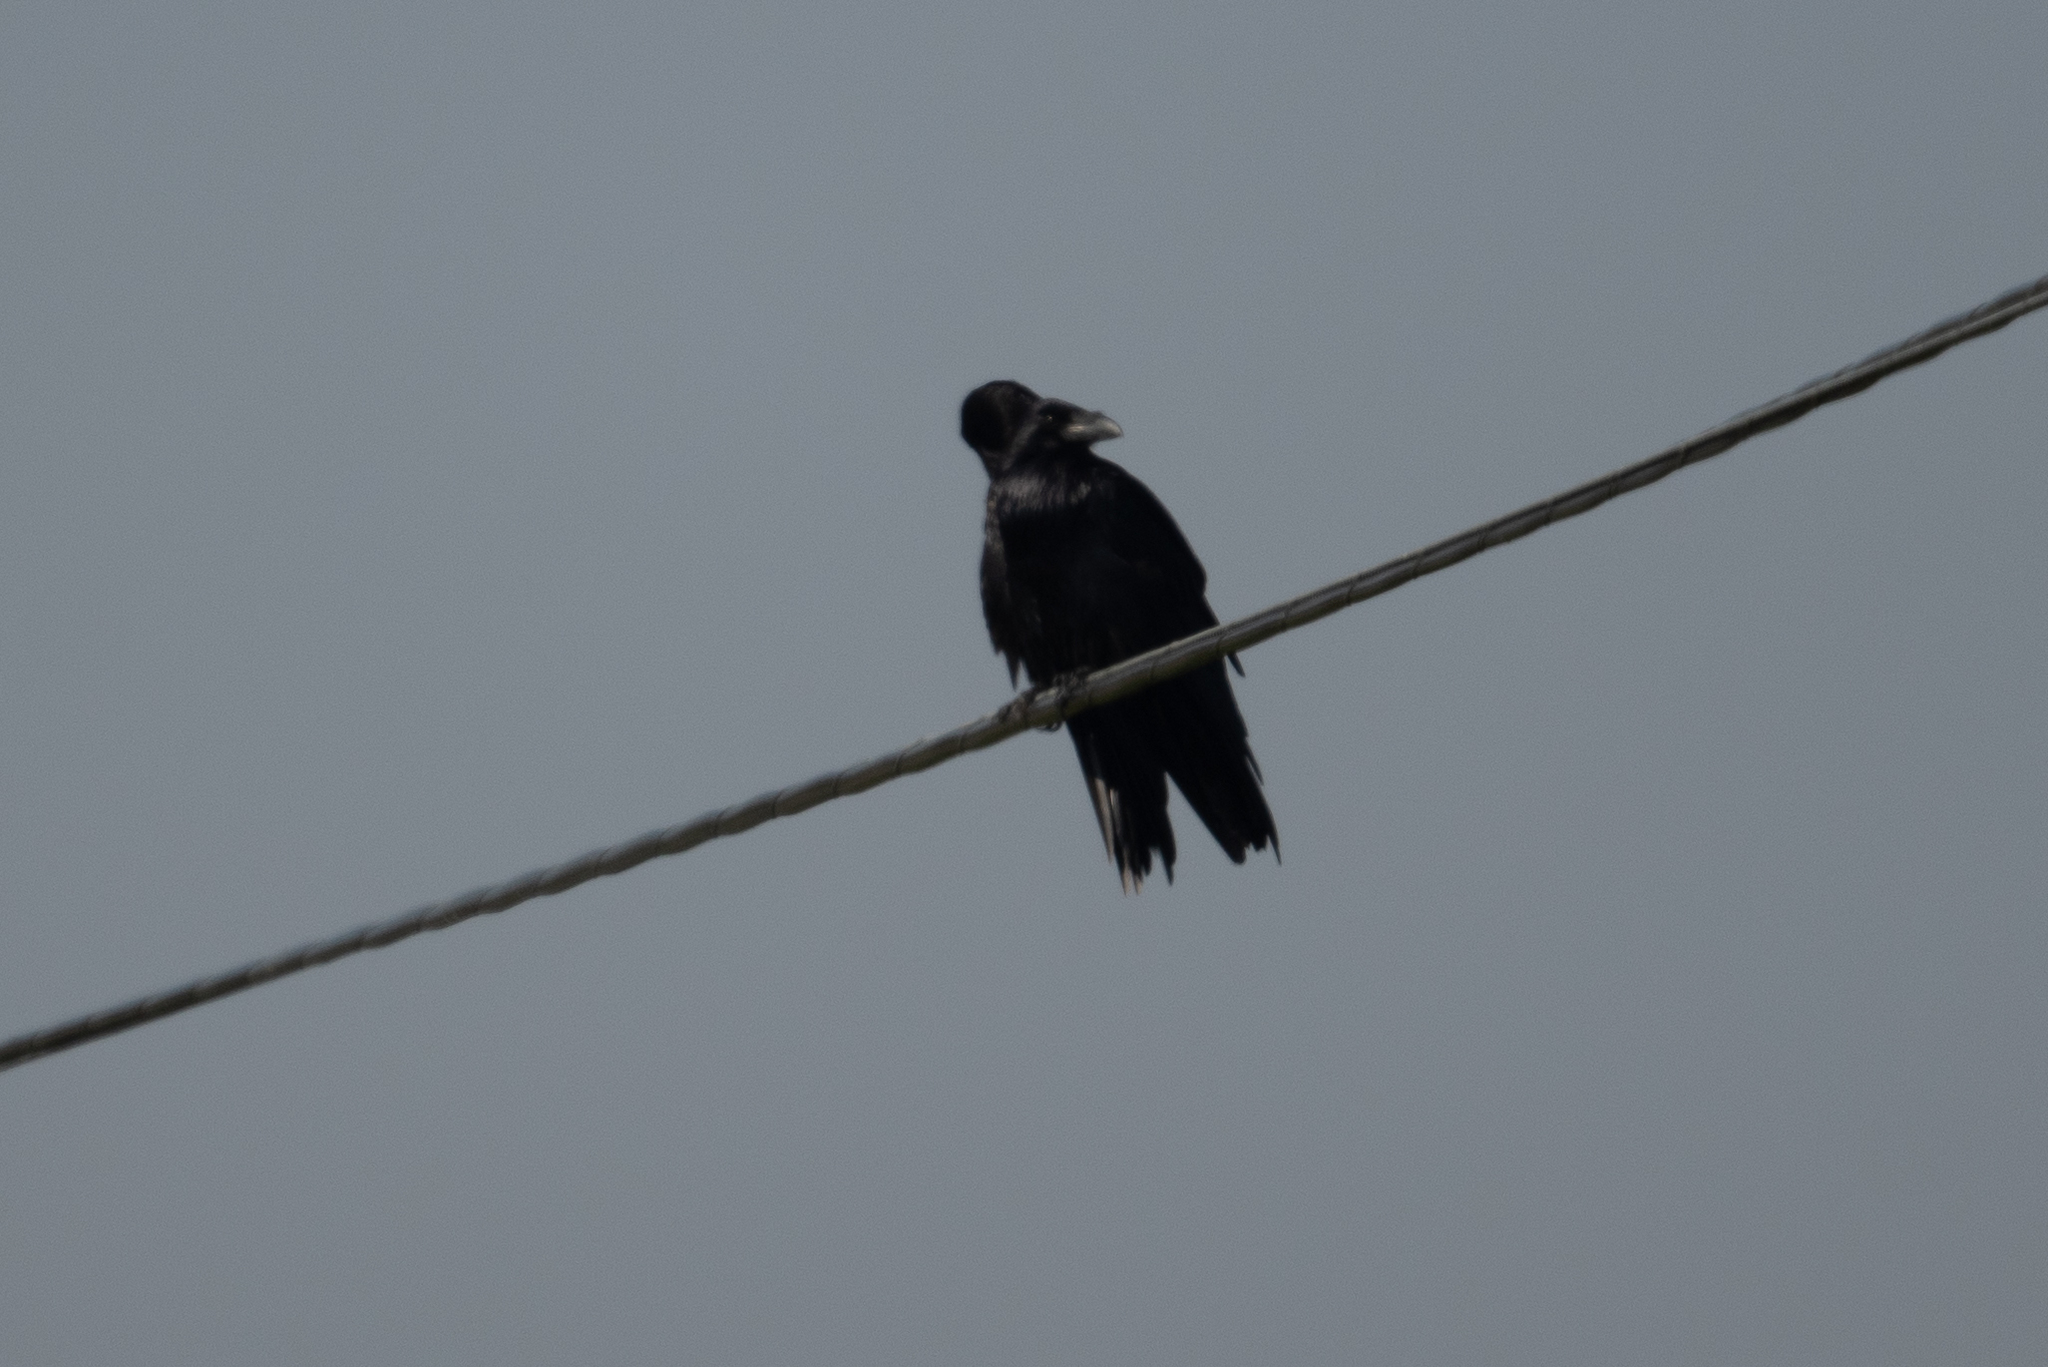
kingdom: Animalia
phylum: Chordata
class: Aves
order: Passeriformes
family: Corvidae
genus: Corvus
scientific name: Corvus corax
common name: Common raven
